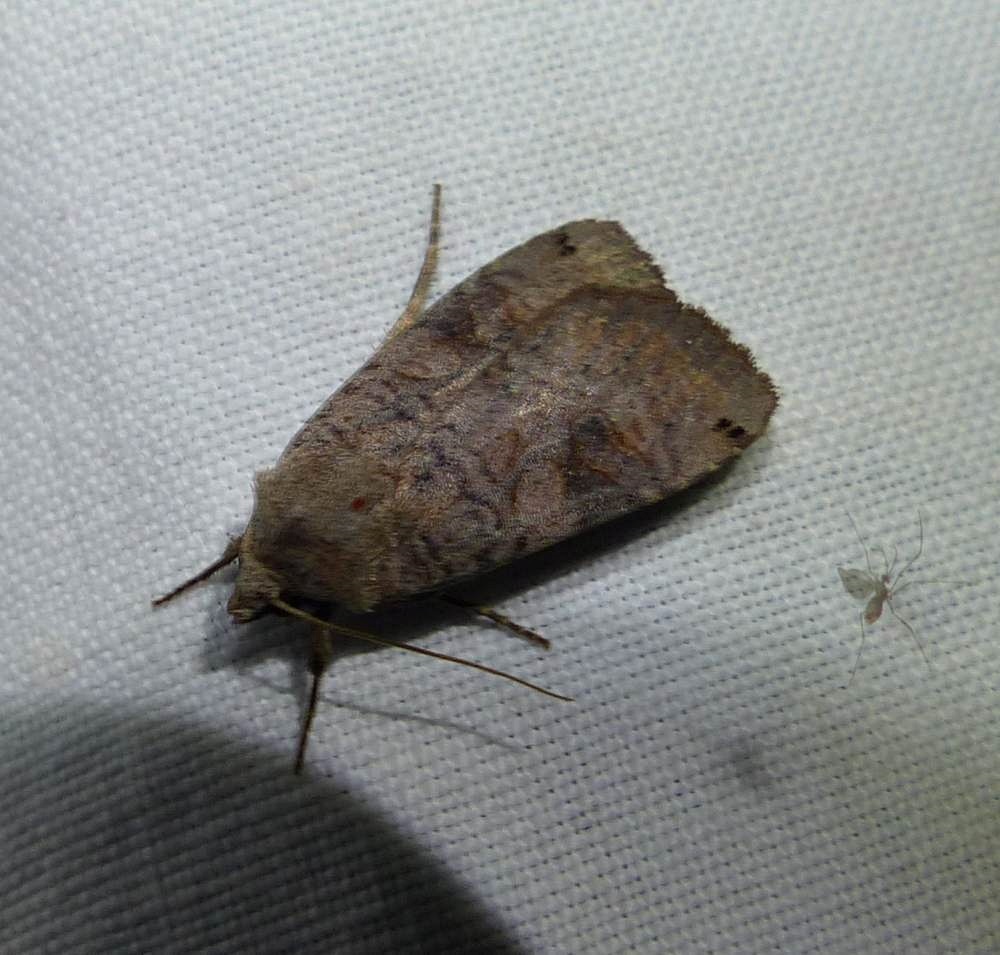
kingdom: Animalia
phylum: Arthropoda
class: Insecta
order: Lepidoptera
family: Noctuidae
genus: Xestia
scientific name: Xestia smithii
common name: Smith's dart
